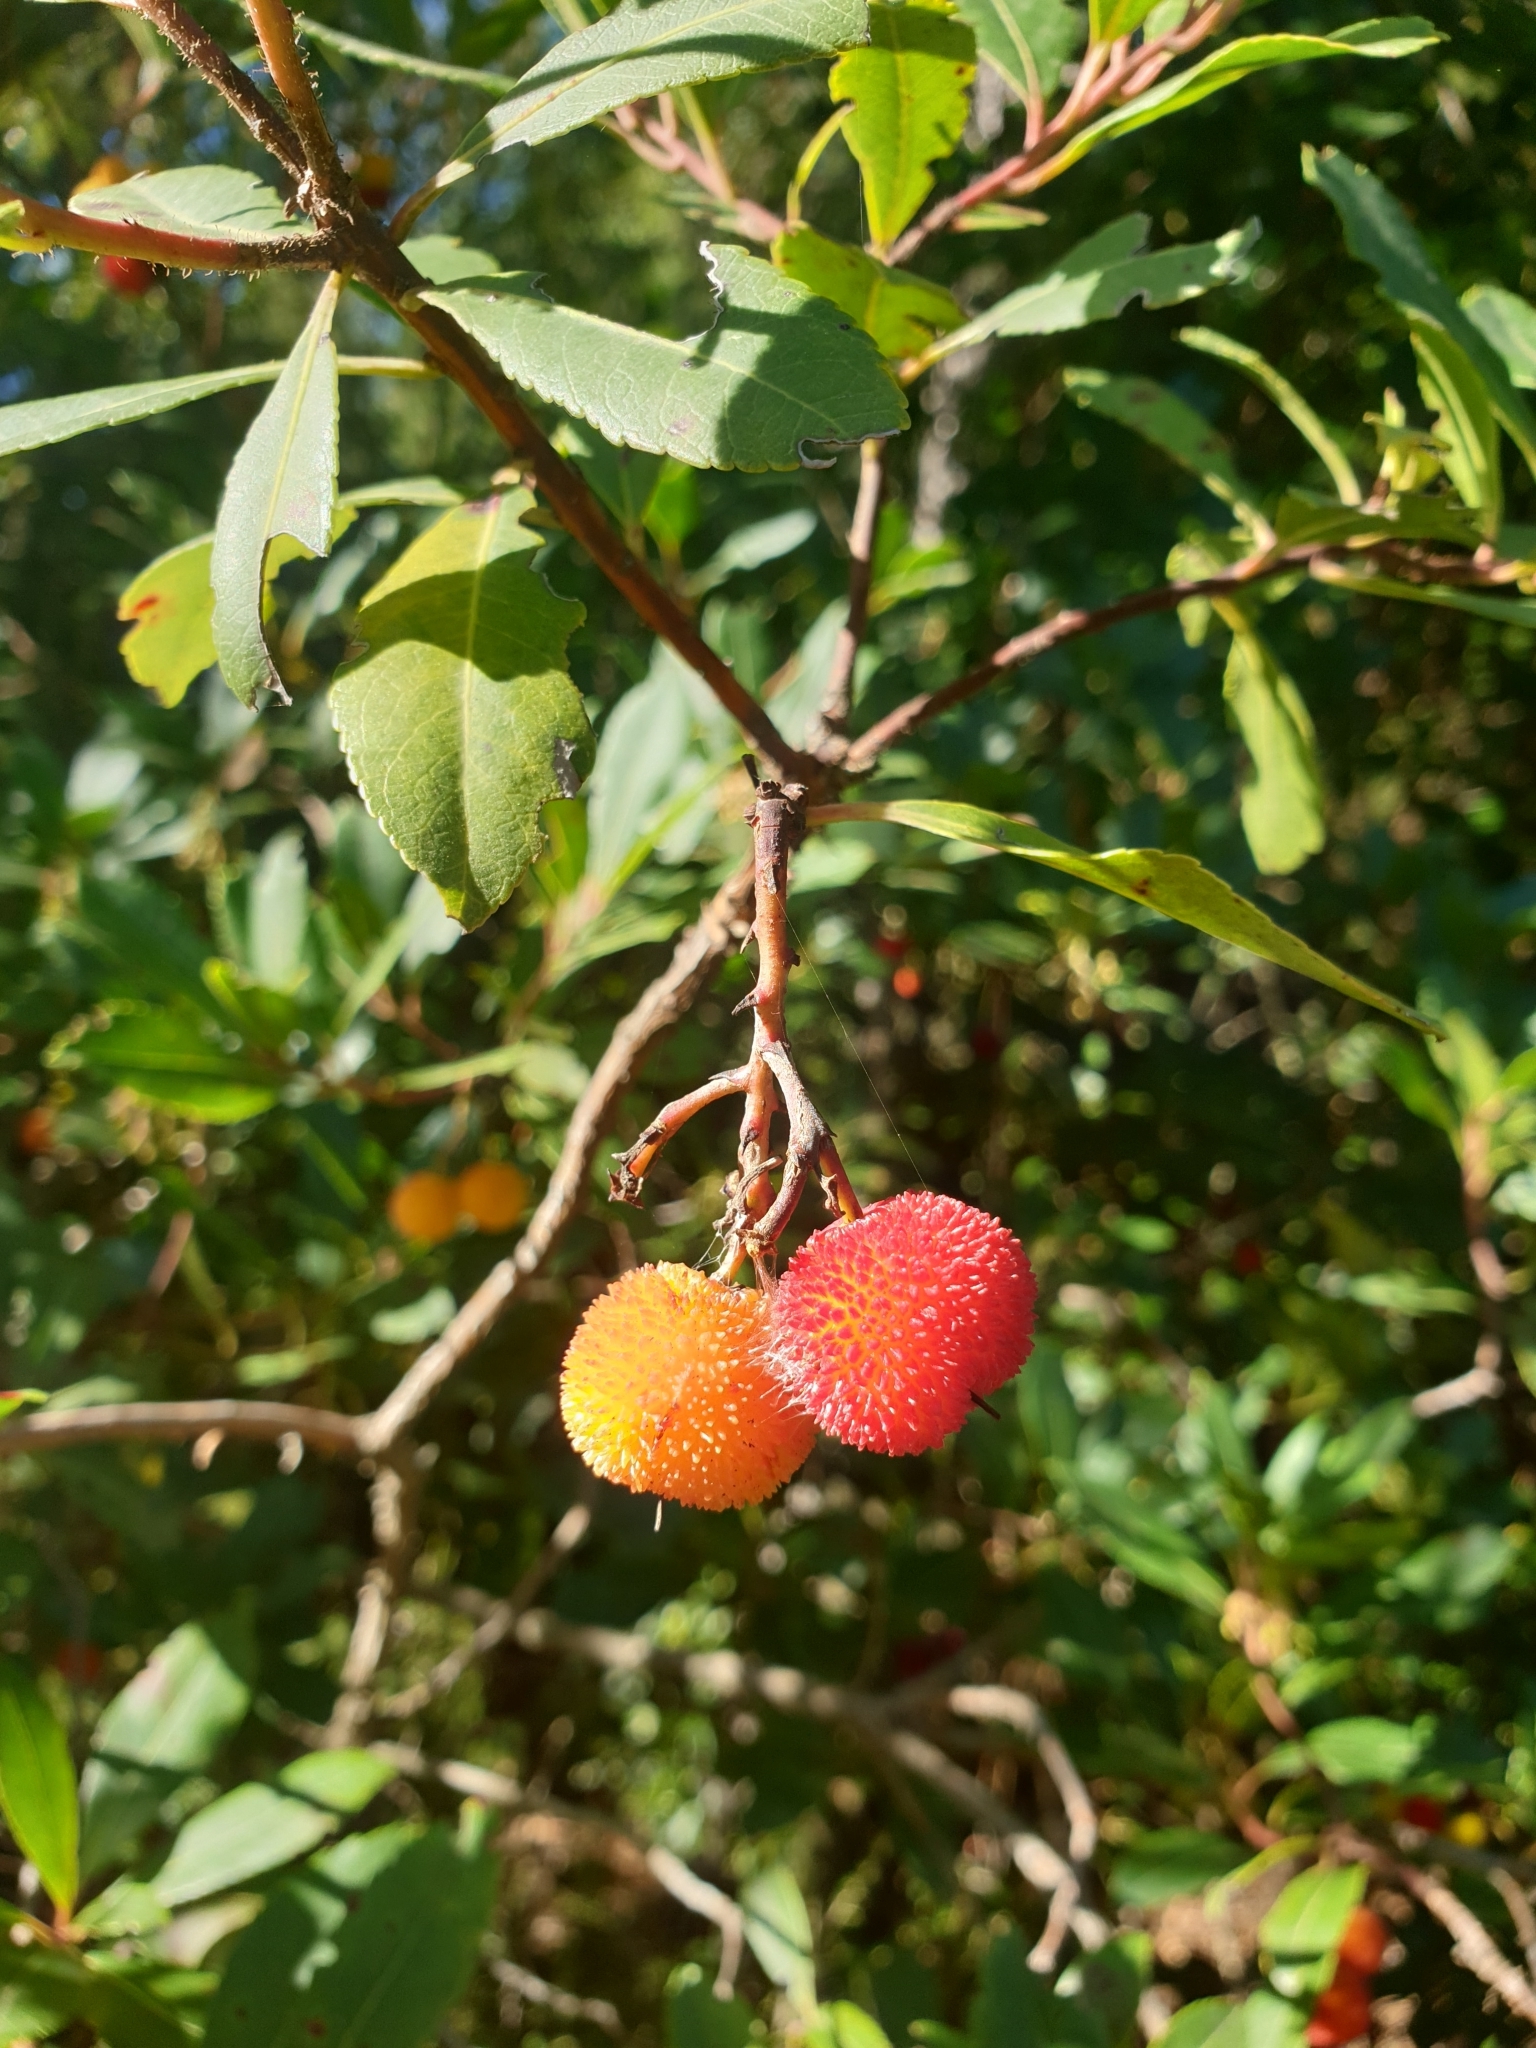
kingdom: Plantae
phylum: Tracheophyta
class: Magnoliopsida
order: Ericales
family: Ericaceae
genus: Arbutus
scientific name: Arbutus unedo
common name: Strawberry-tree
